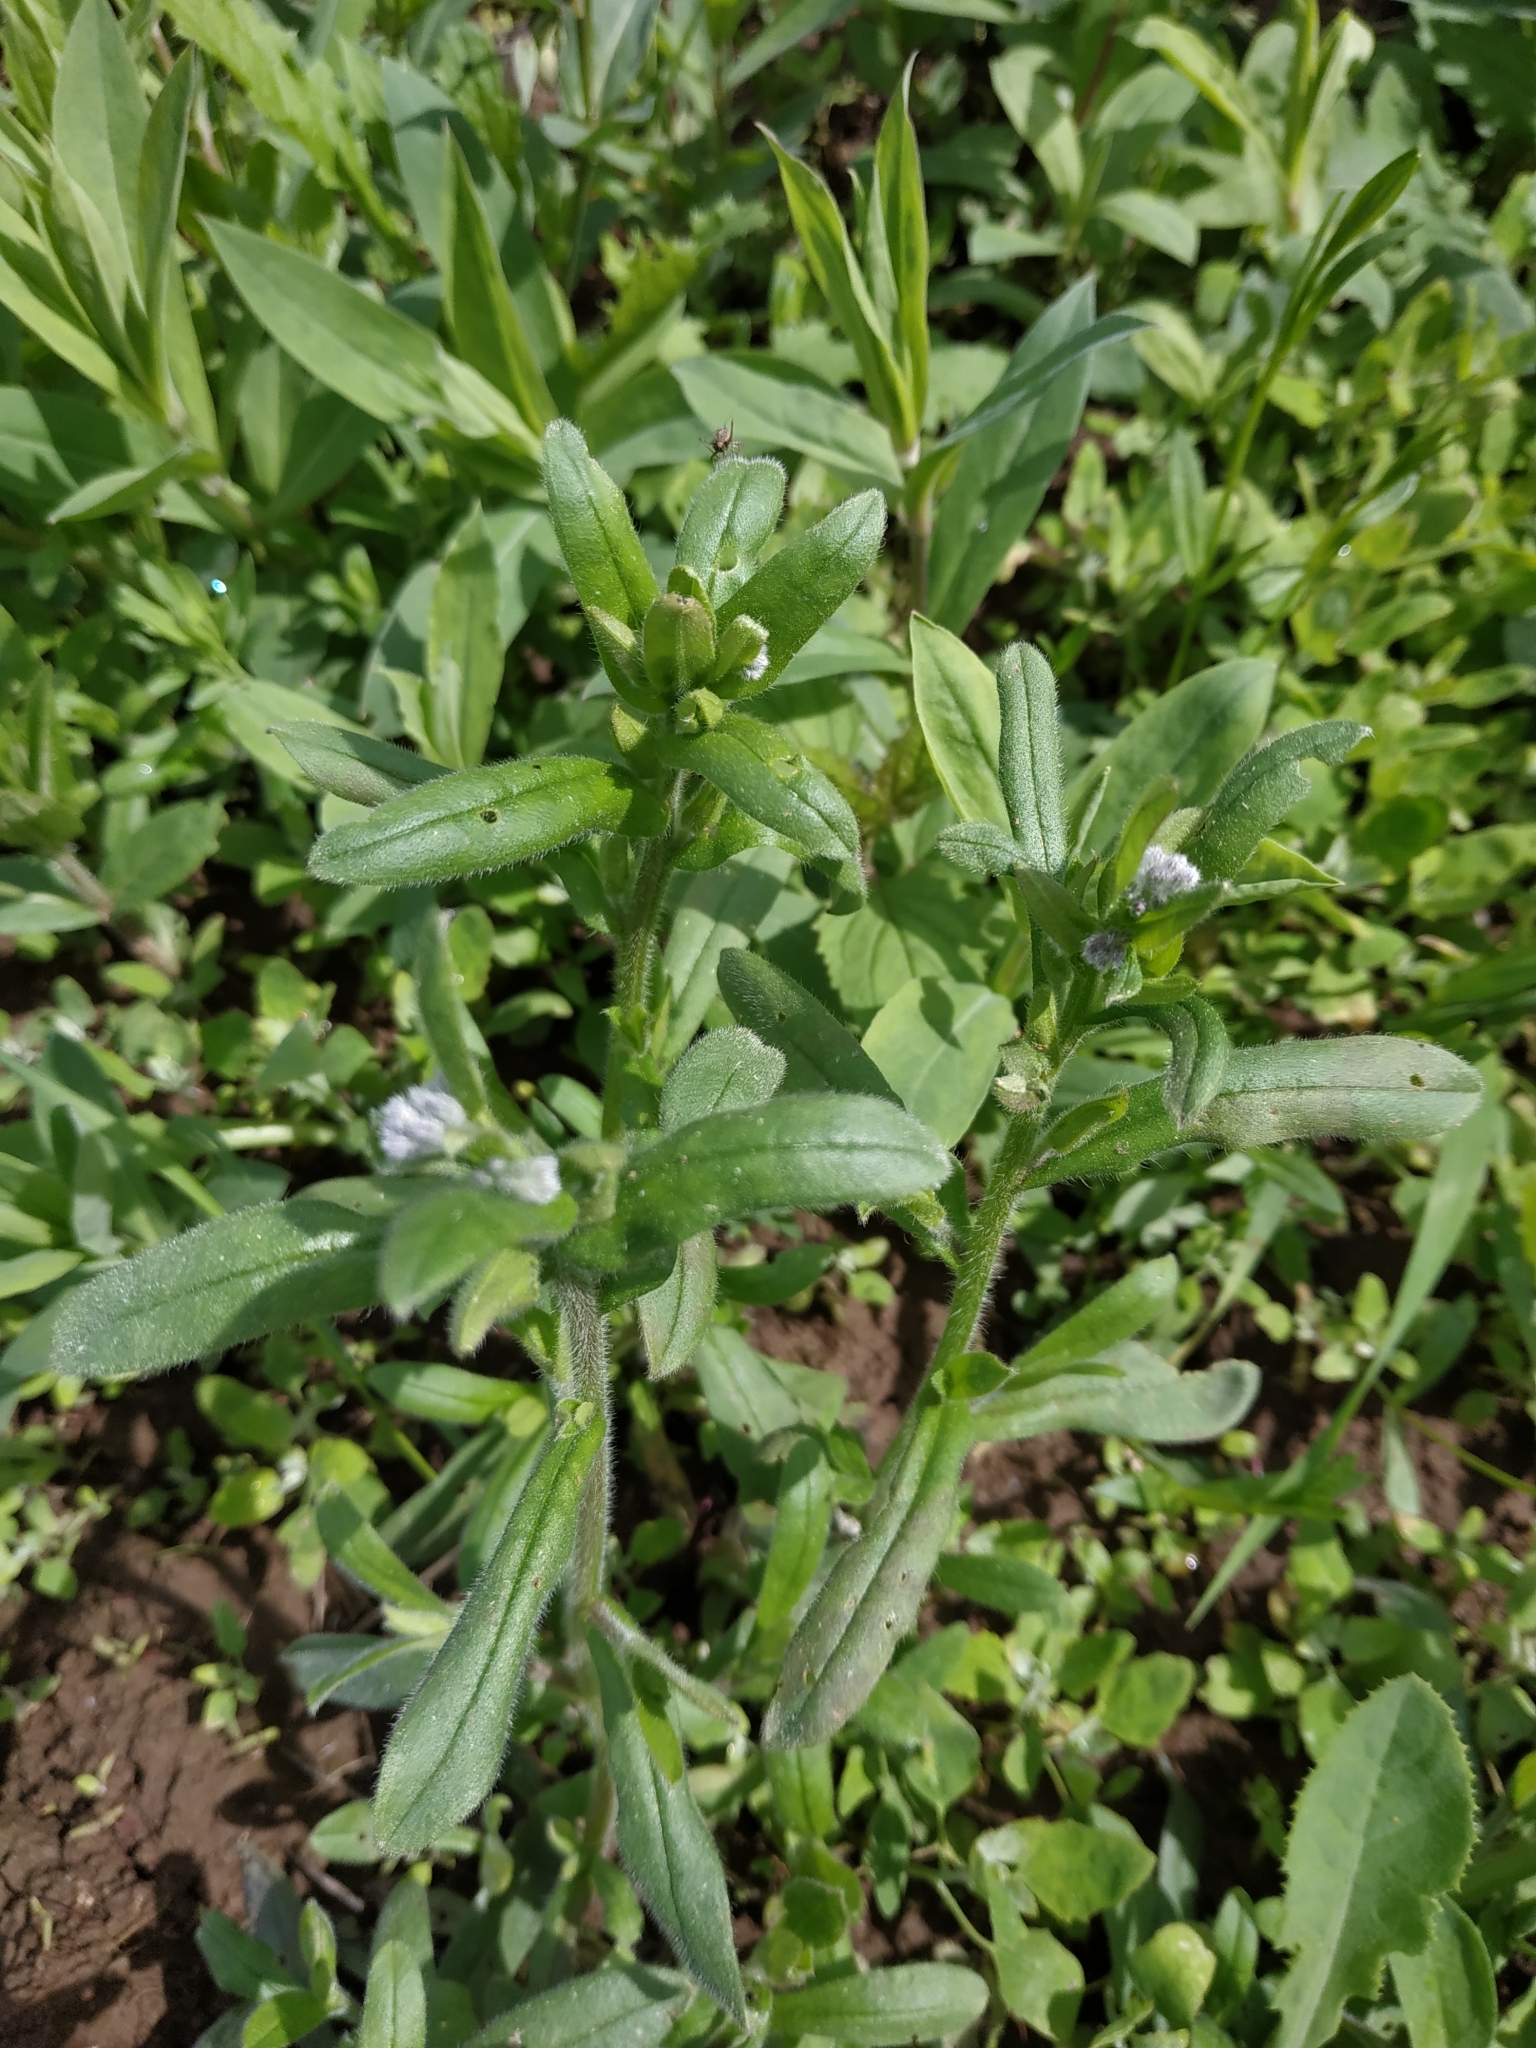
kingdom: Plantae
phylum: Tracheophyta
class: Magnoliopsida
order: Boraginales
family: Boraginaceae
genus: Myosotis
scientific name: Myosotis arvensis
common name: Field forget-me-not
